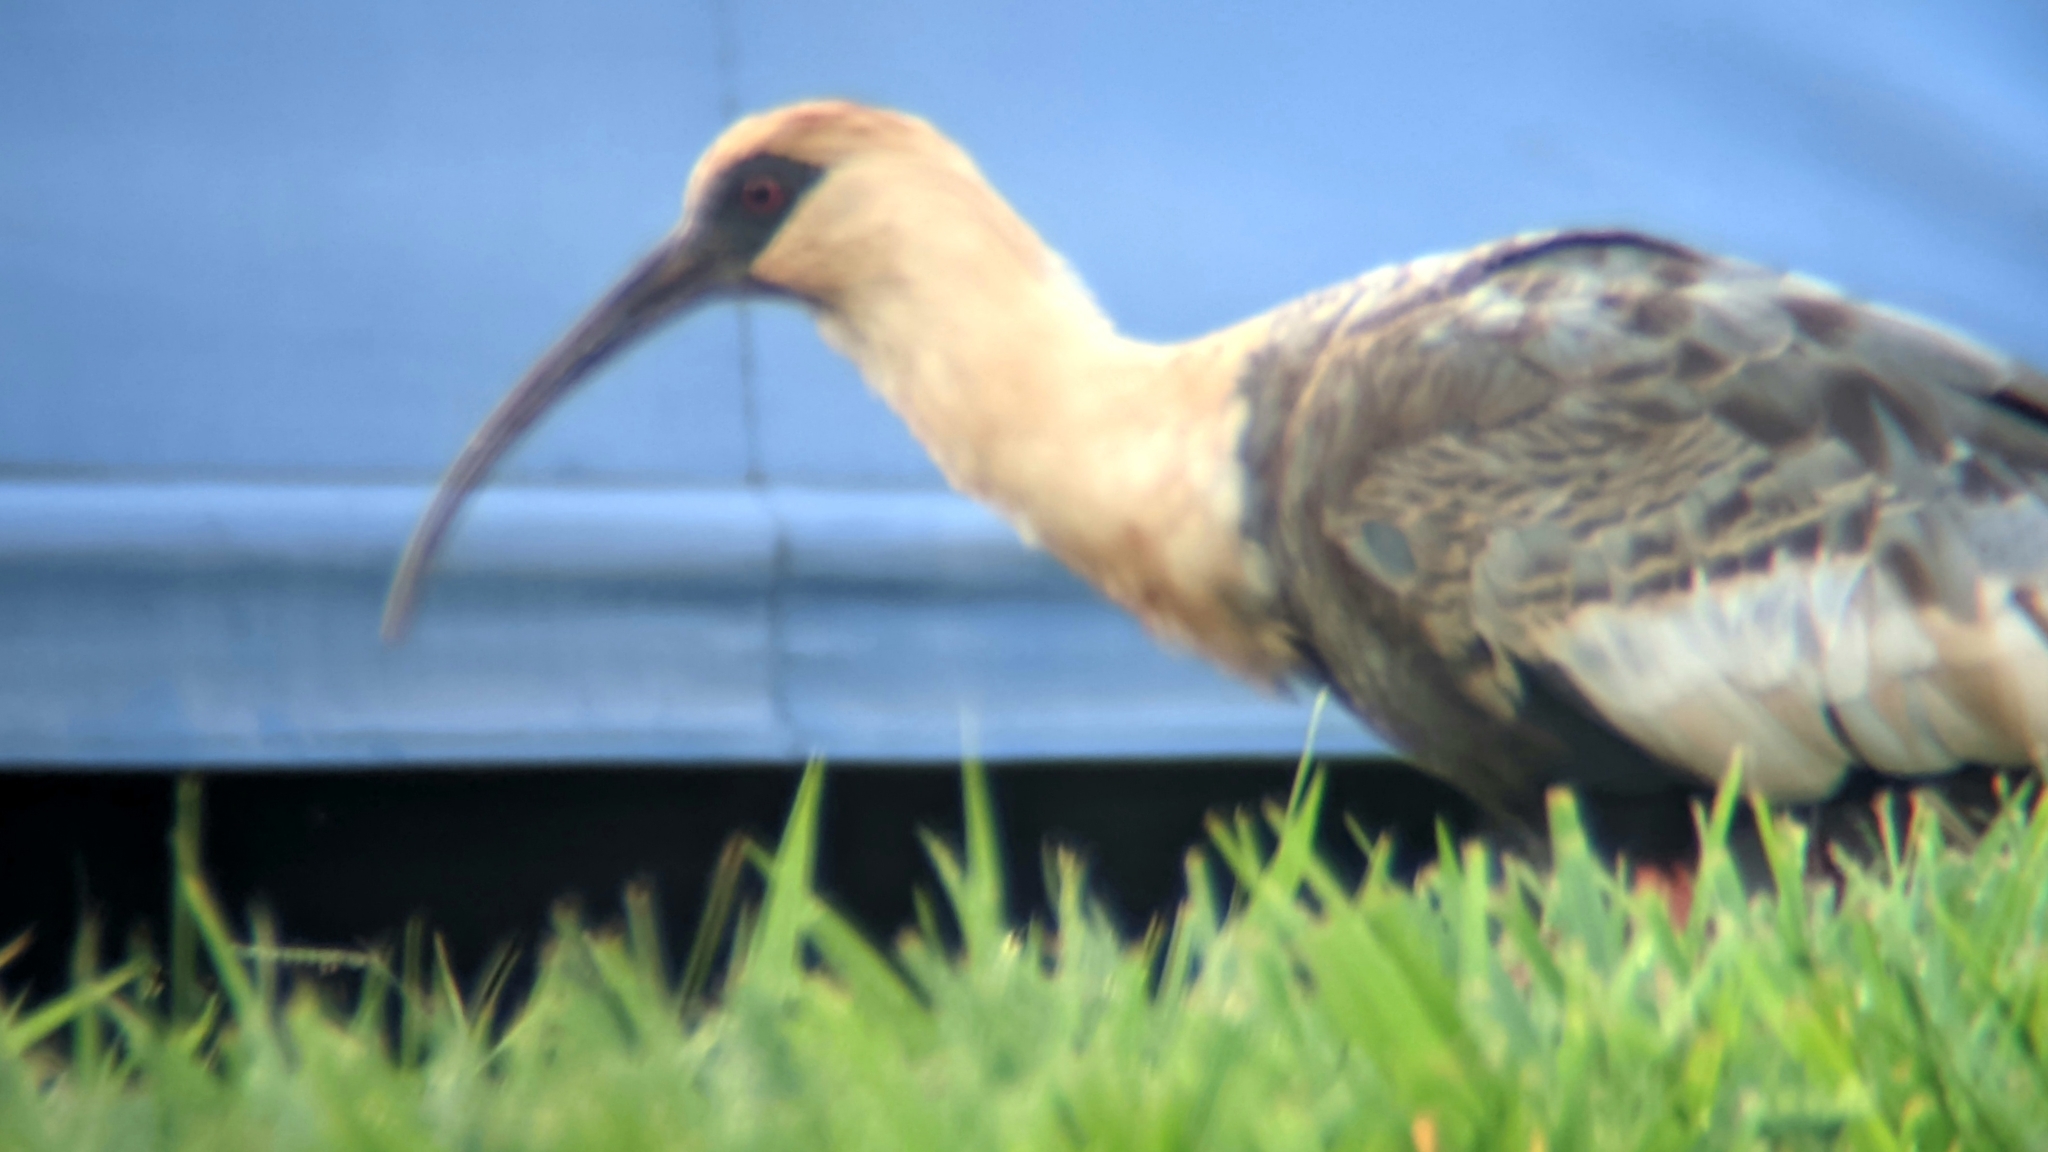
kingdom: Animalia
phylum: Chordata
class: Aves
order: Pelecaniformes
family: Threskiornithidae
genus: Theristicus
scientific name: Theristicus caudatus
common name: Buff-necked ibis
